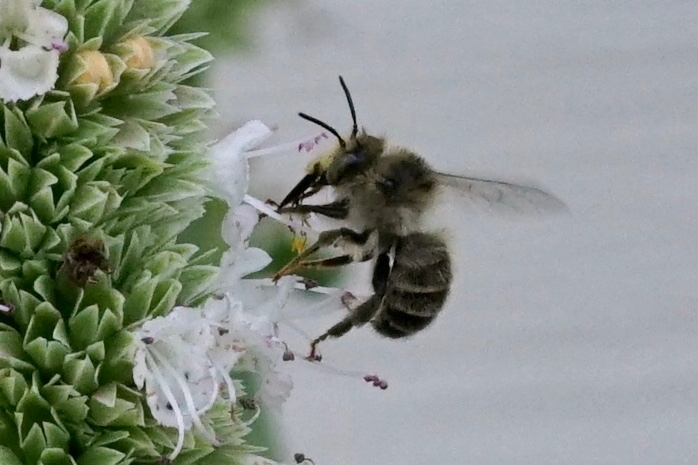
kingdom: Animalia
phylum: Arthropoda
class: Insecta
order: Hymenoptera
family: Apidae
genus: Anthophora
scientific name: Anthophora terminalis
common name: Orange-tipped wood-digger bee
